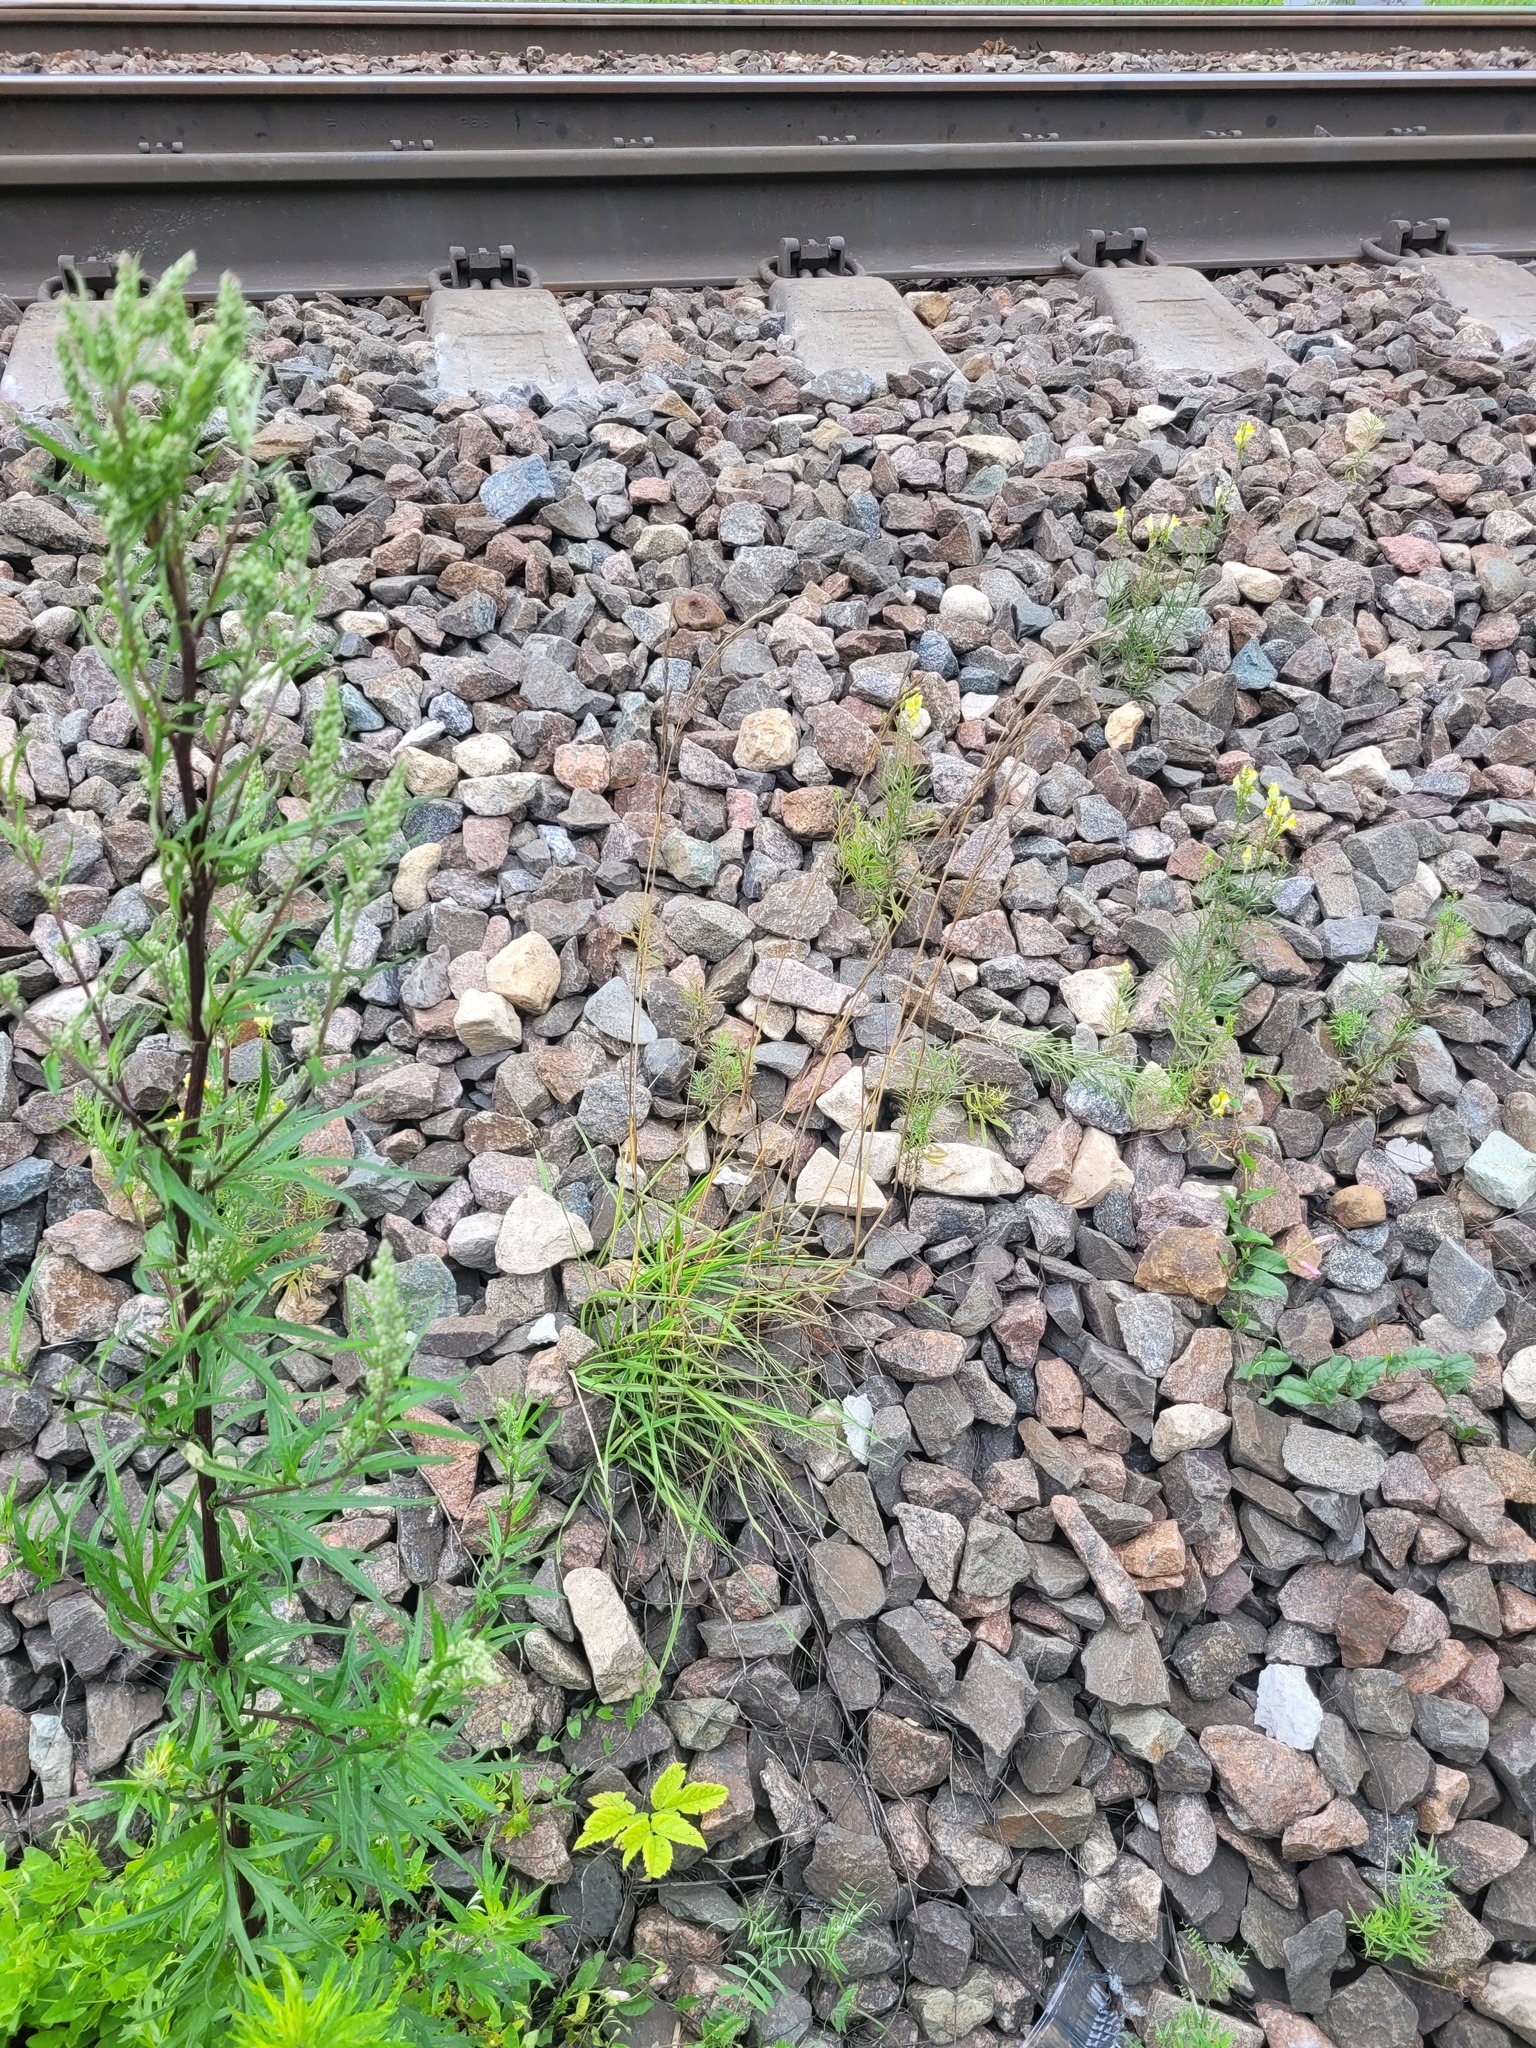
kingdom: Plantae
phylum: Tracheophyta
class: Liliopsida
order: Poales
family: Poaceae
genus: Lolium
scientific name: Lolium pratense
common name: Dover grass
